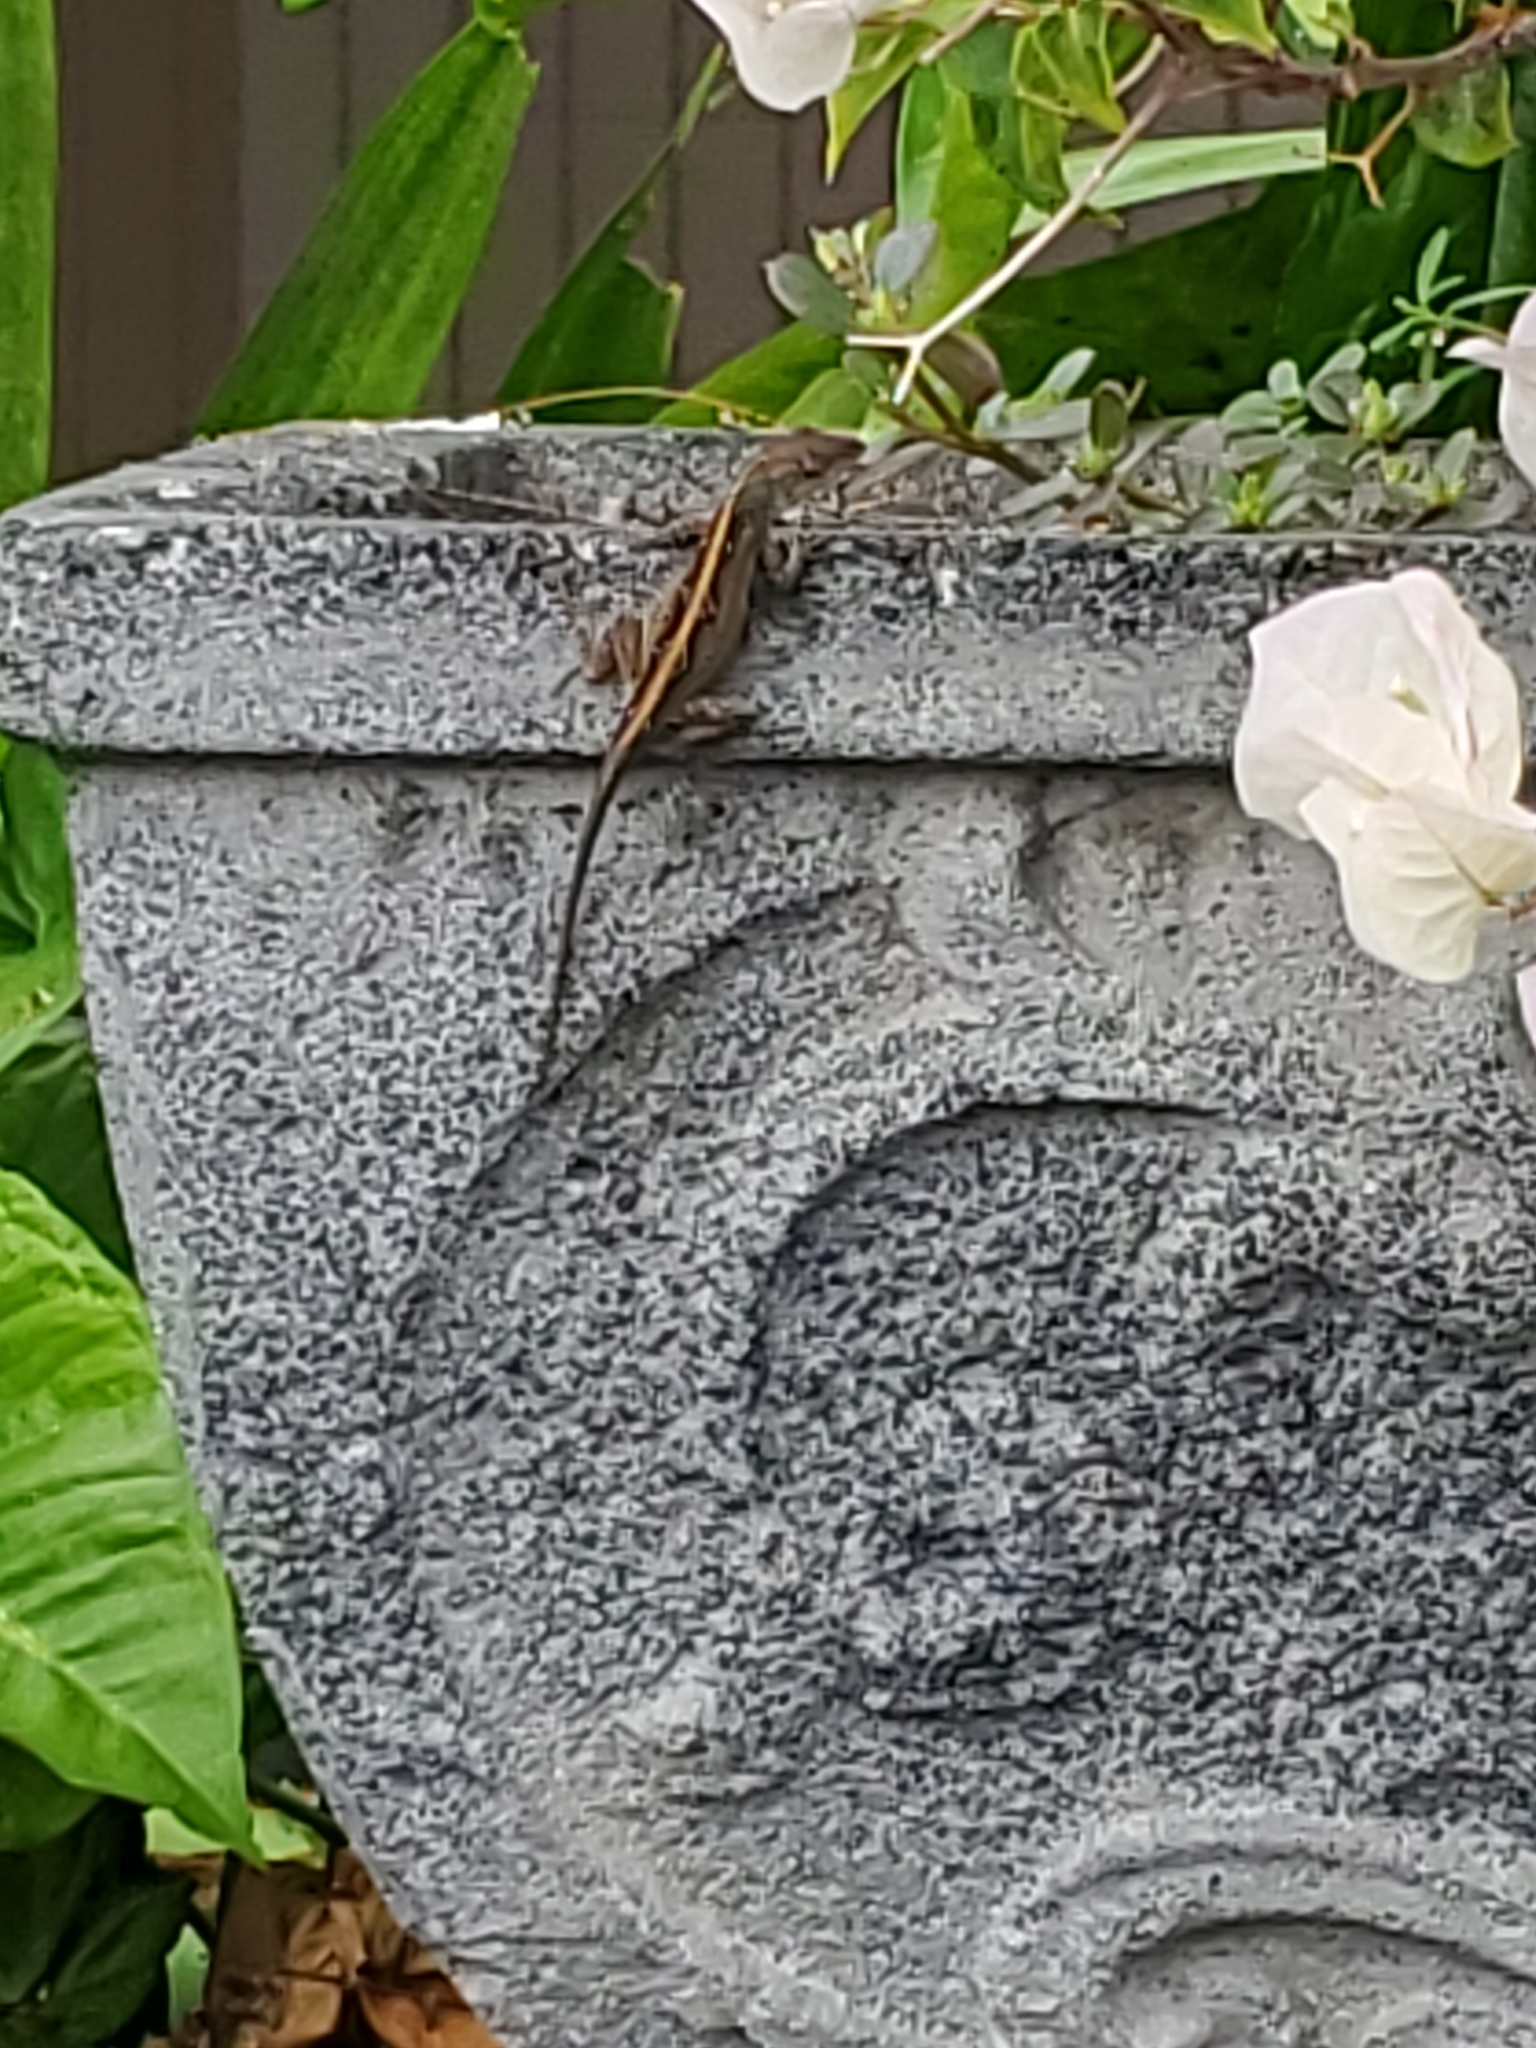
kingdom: Animalia
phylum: Chordata
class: Squamata
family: Dactyloidae
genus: Anolis
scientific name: Anolis sagrei
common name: Brown anole
